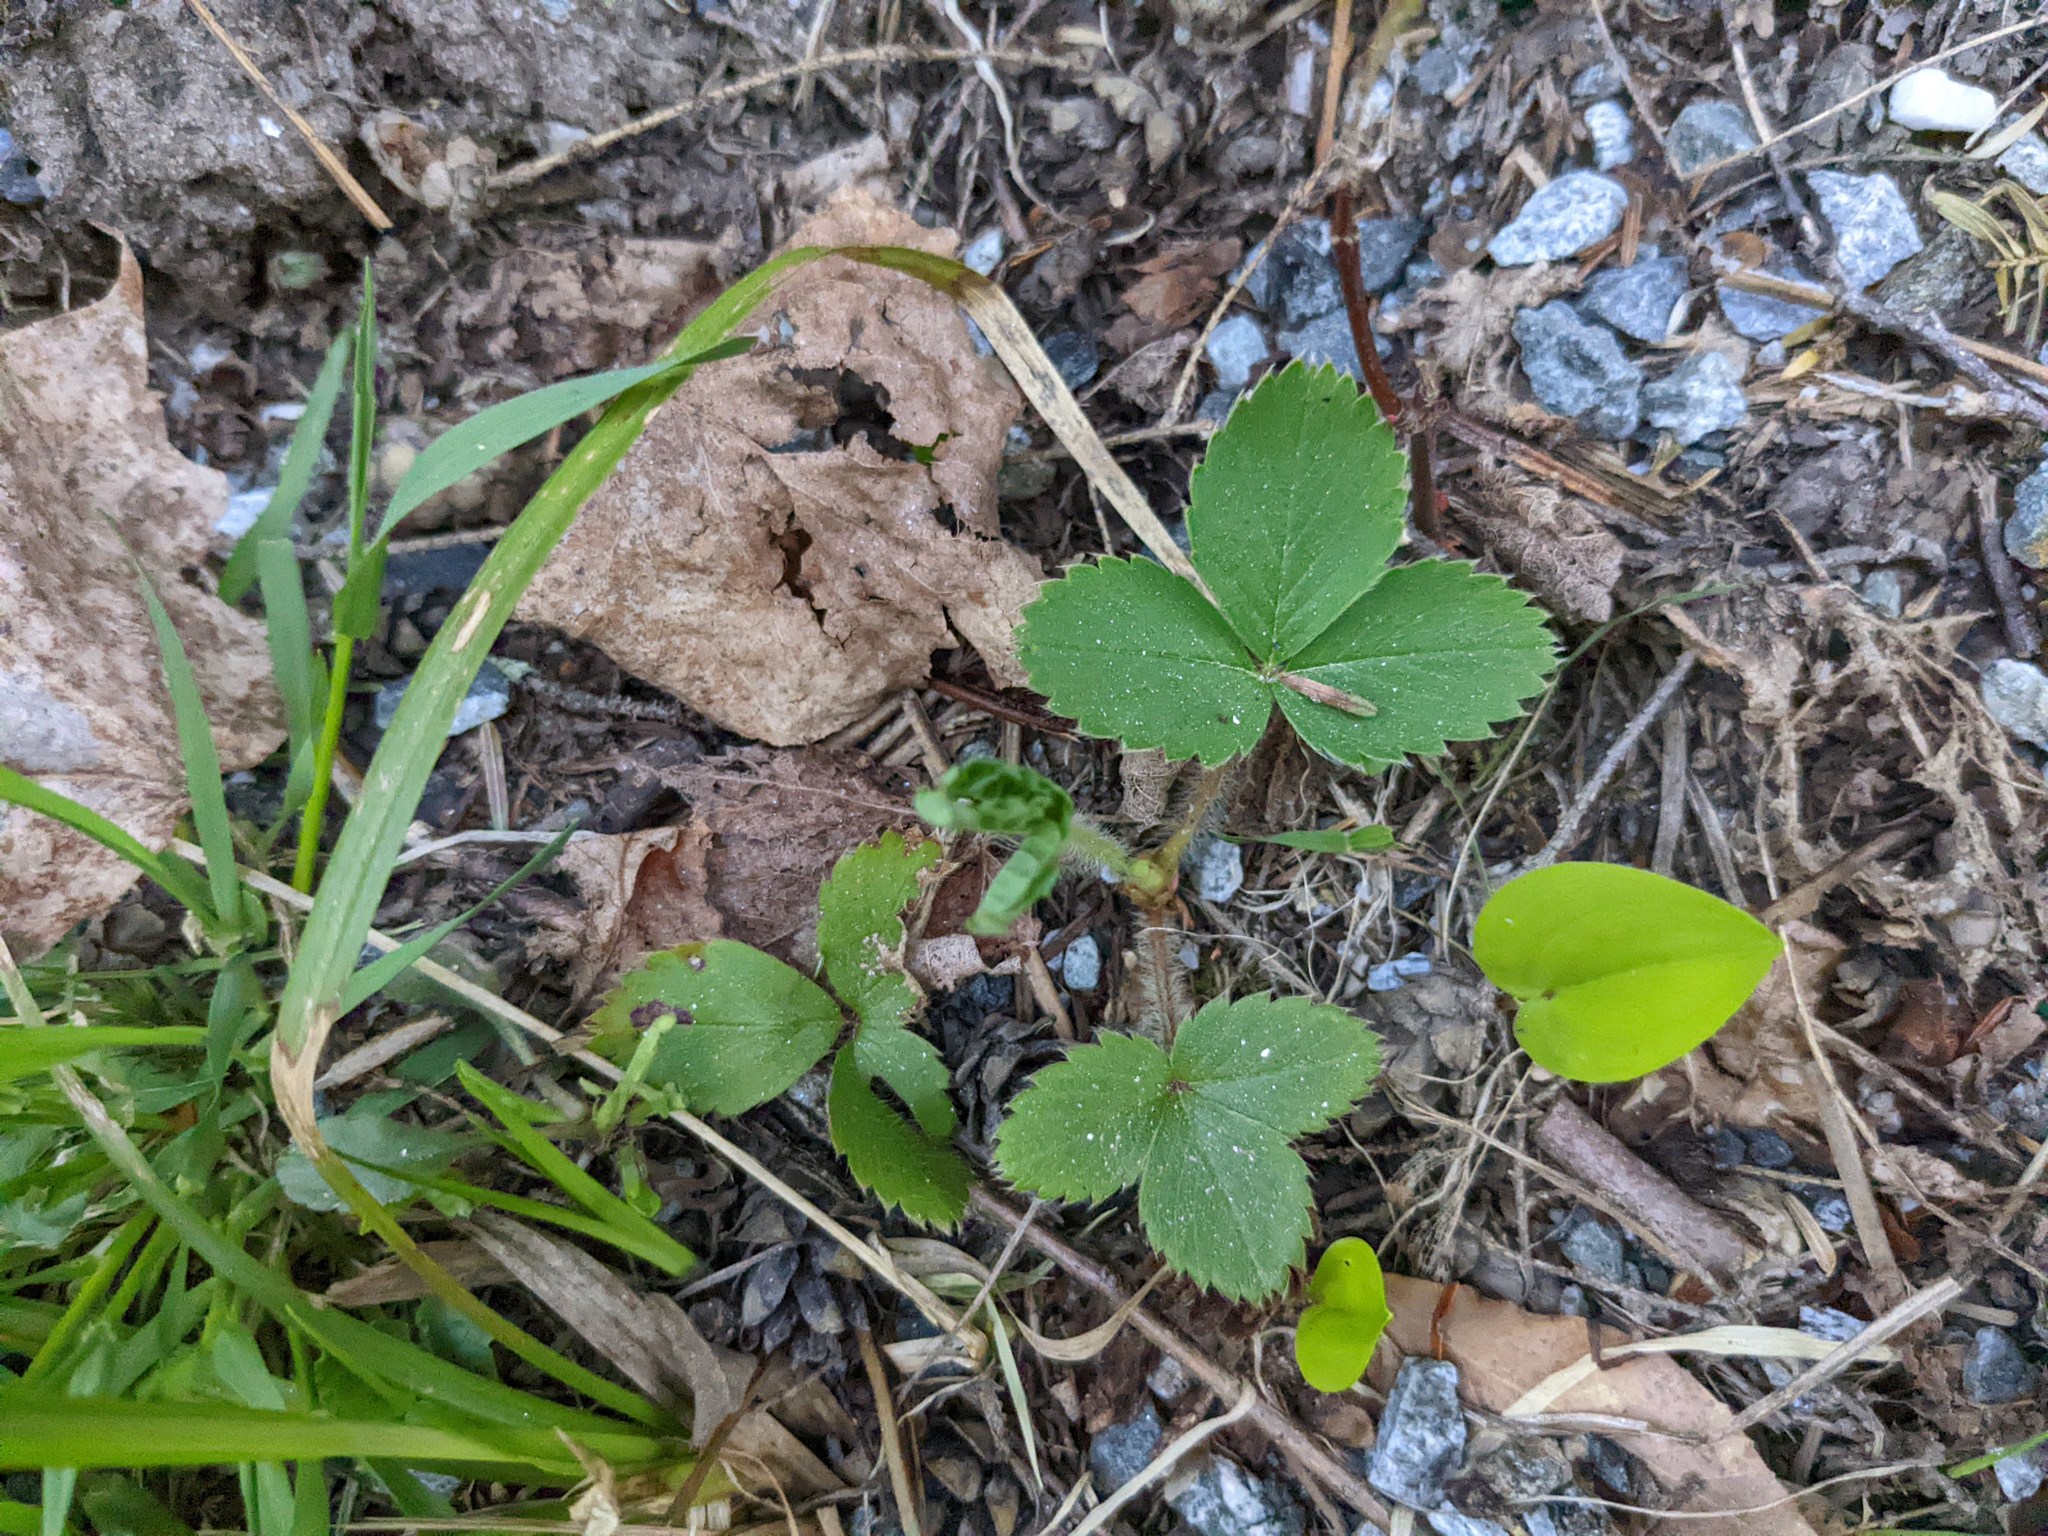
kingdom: Plantae
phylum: Tracheophyta
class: Liliopsida
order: Asparagales
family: Asparagaceae
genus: Maianthemum
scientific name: Maianthemum canadense
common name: False lily-of-the-valley
